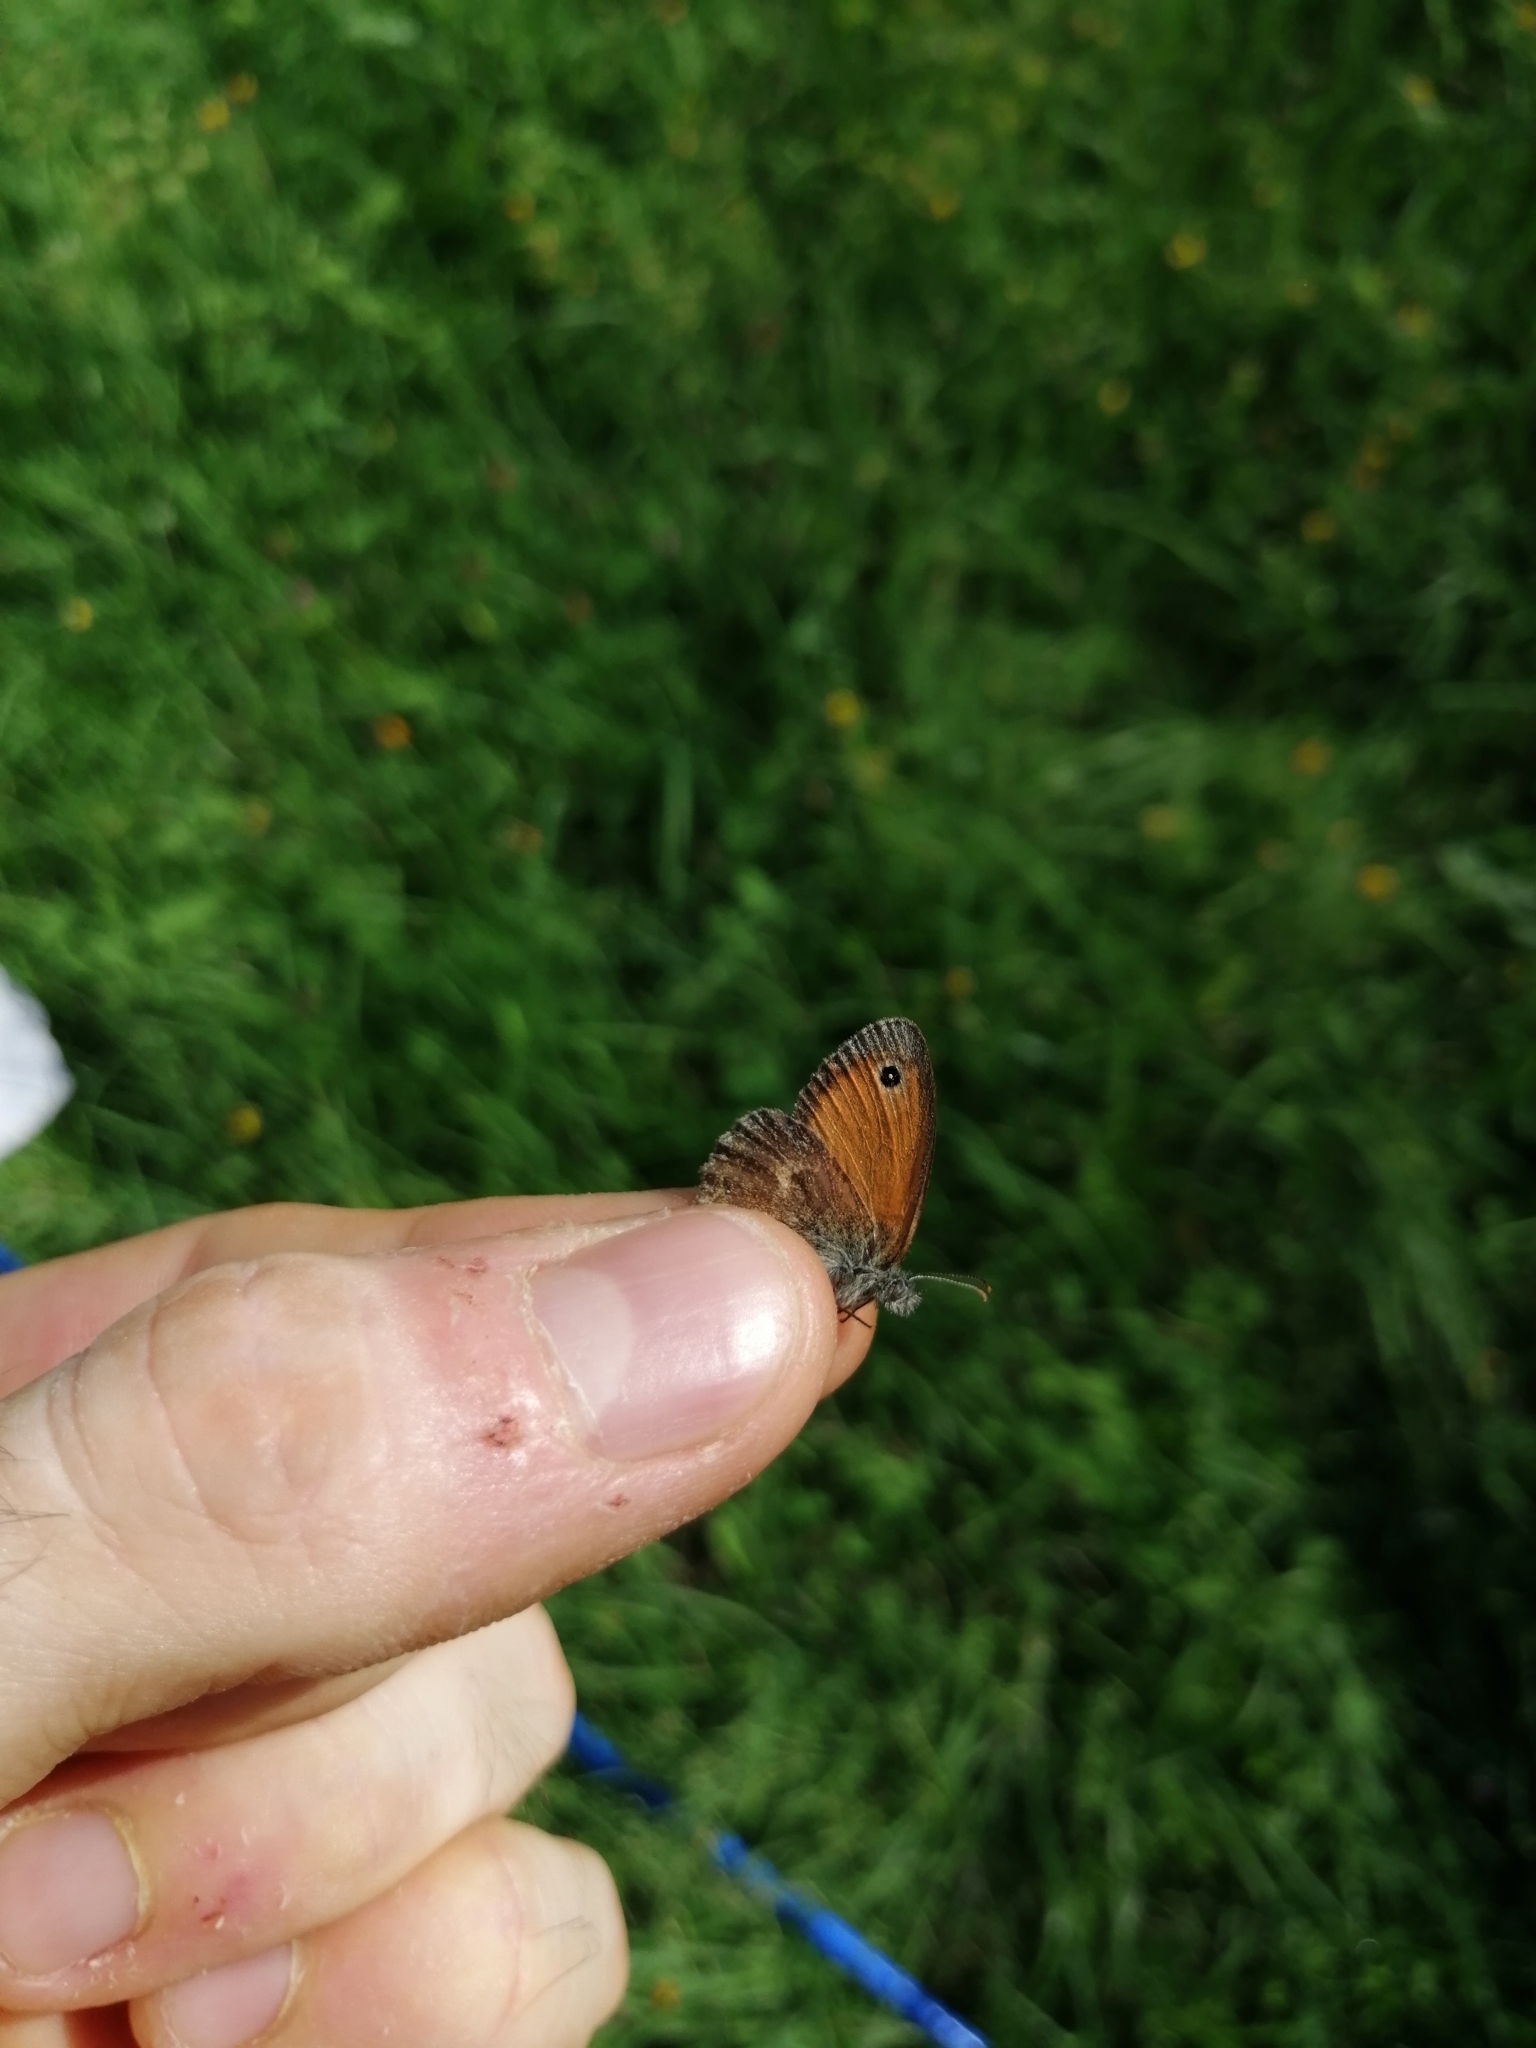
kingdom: Animalia
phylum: Arthropoda
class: Insecta
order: Lepidoptera
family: Nymphalidae
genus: Coenonympha
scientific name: Coenonympha pamphilus
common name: Small heath
